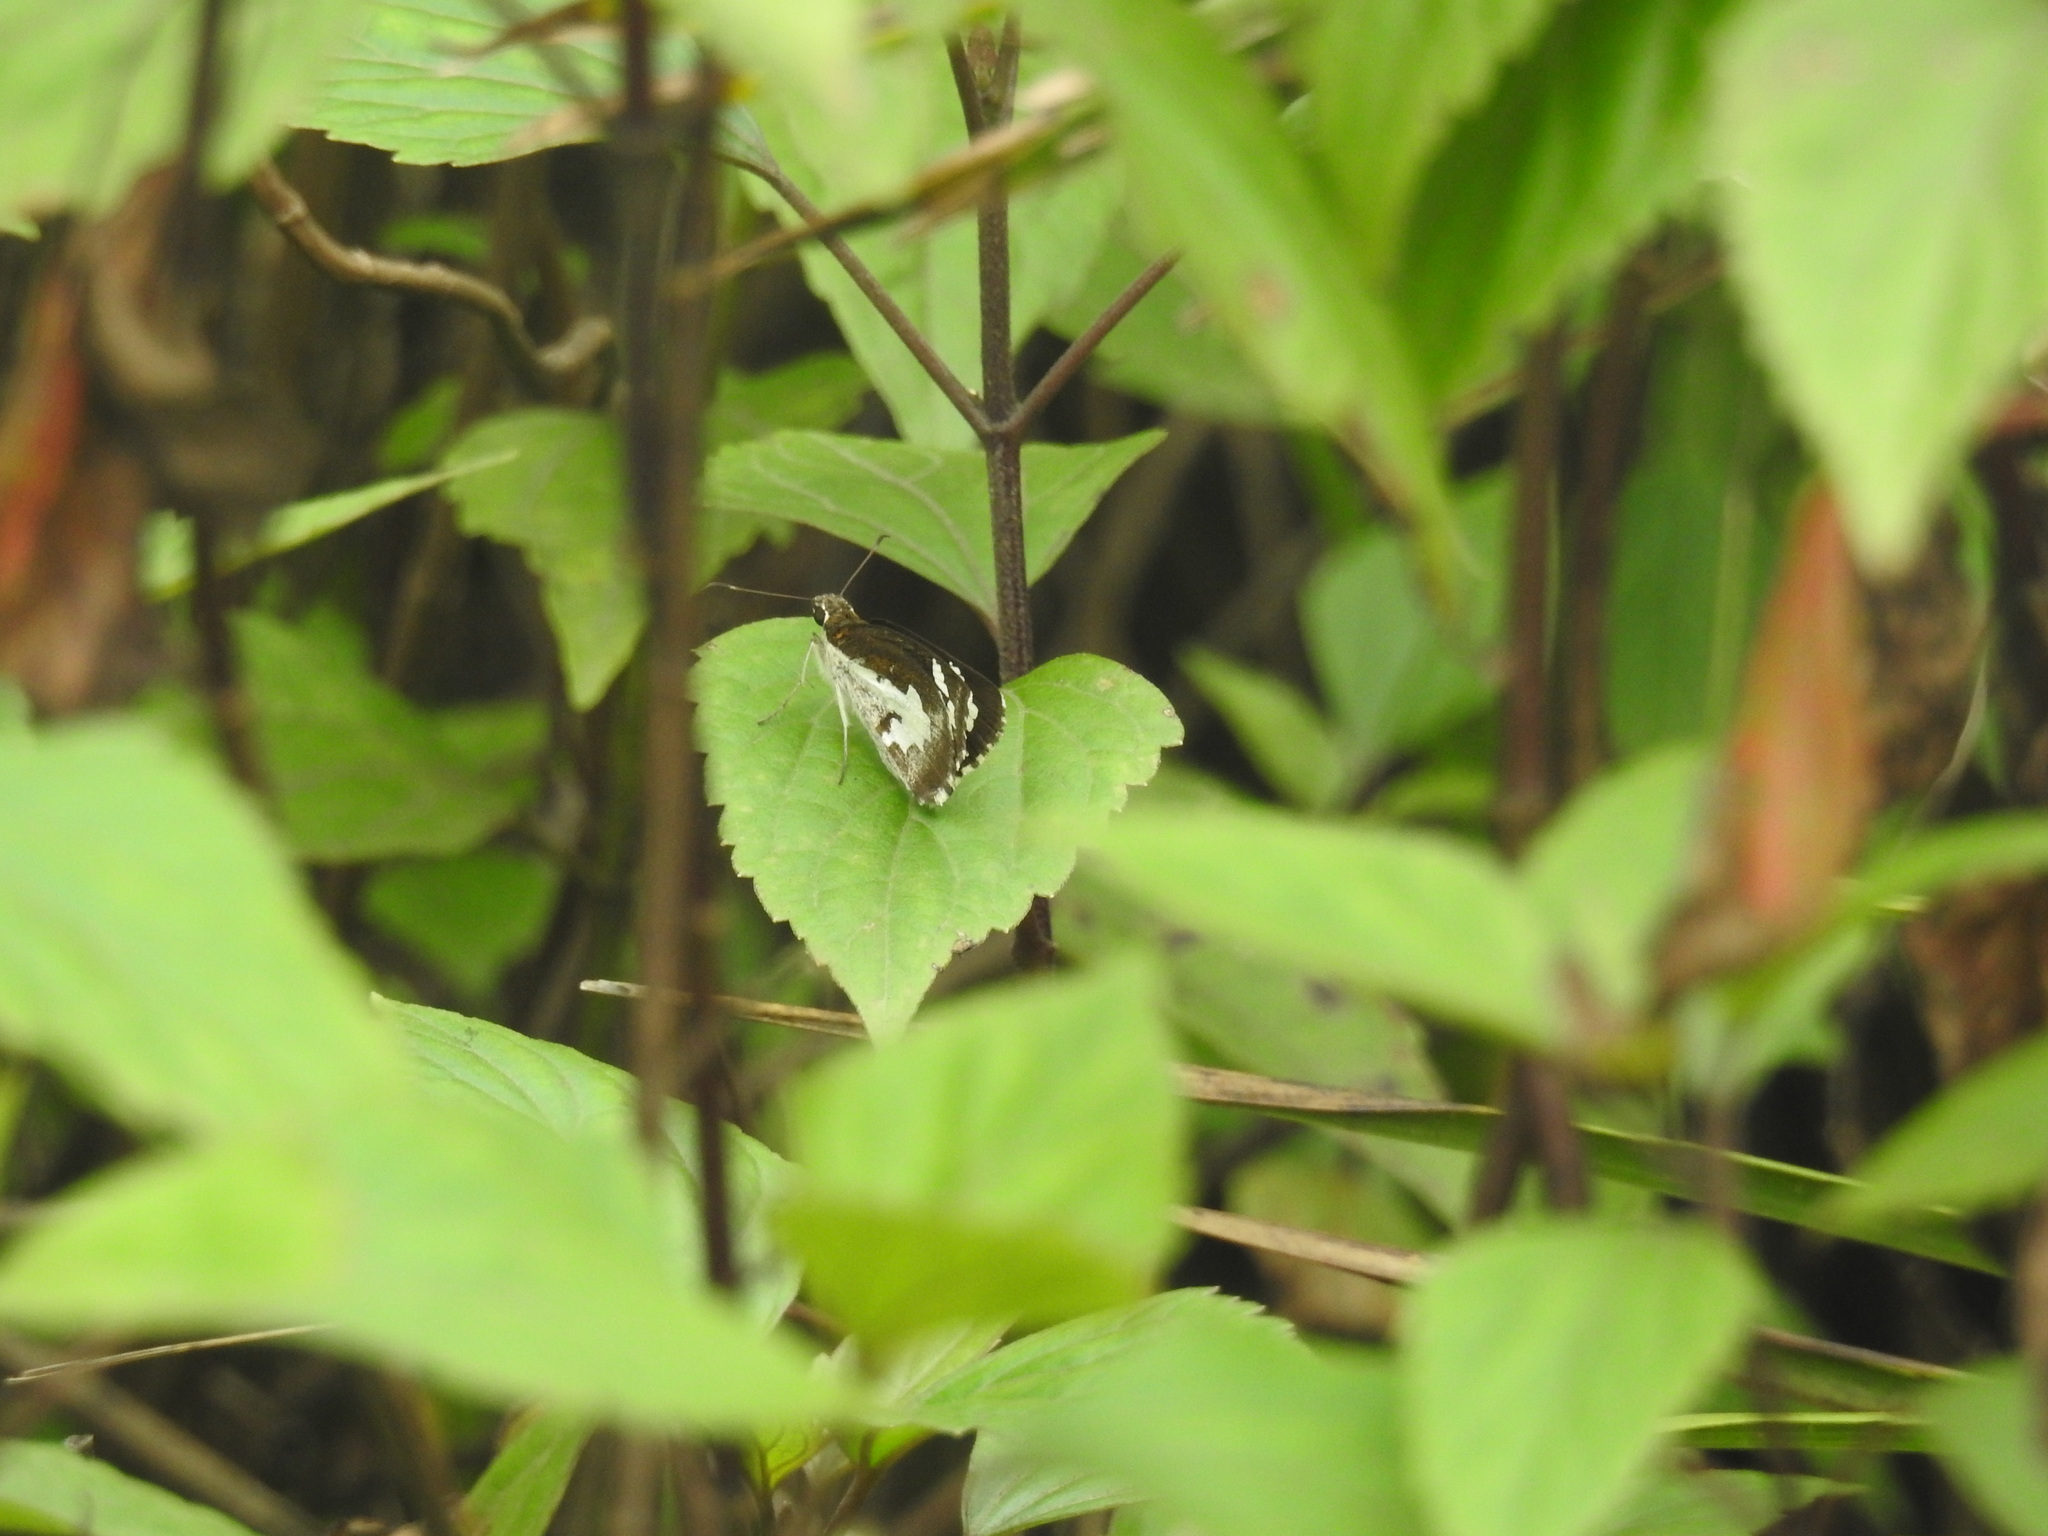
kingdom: Animalia
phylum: Arthropoda
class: Insecta
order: Lepidoptera
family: Hesperiidae
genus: Udaspes
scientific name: Udaspes folus
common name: Grass demon
